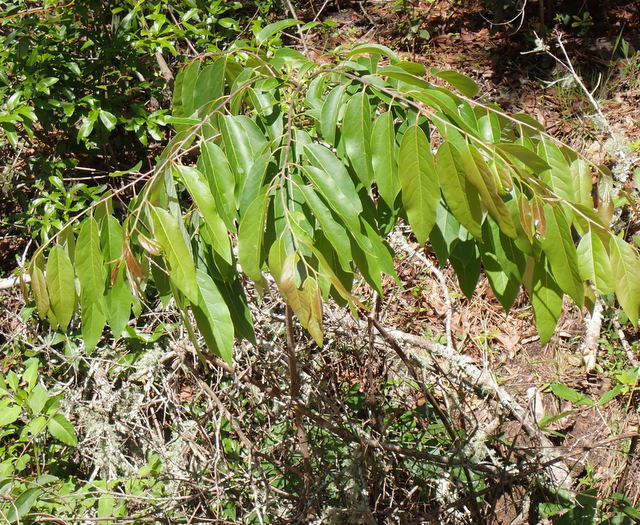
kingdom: Plantae
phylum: Tracheophyta
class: Magnoliopsida
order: Ericales
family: Ebenaceae
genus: Diospyros
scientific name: Diospyros virginiana
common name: Persimmon
